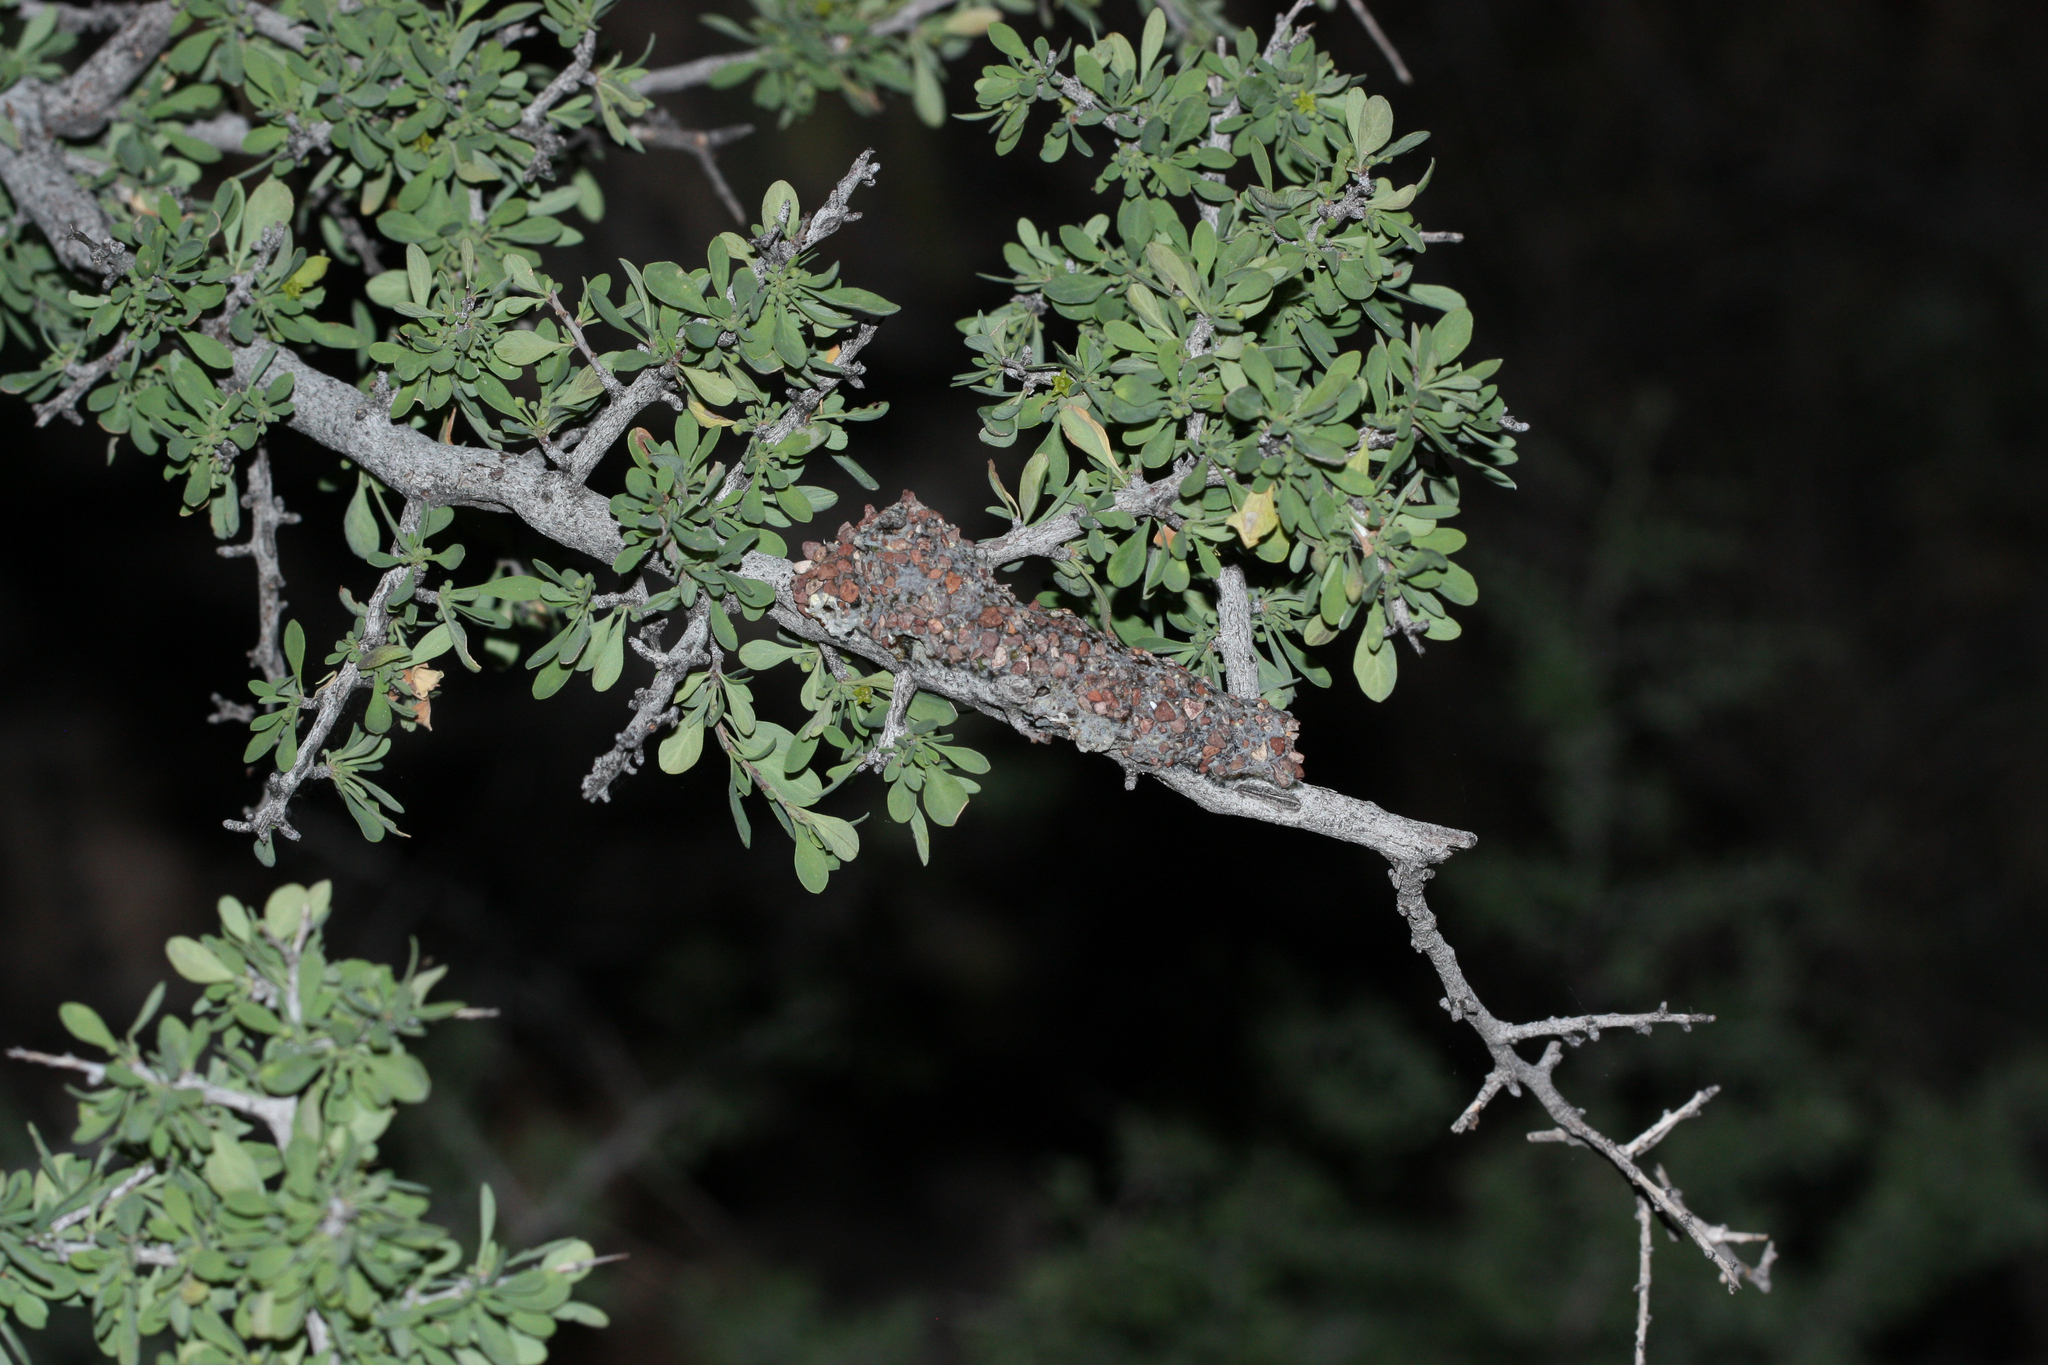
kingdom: Animalia
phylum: Arthropoda
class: Insecta
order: Hymenoptera
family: Megachilidae
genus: Dianthidium
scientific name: Dianthidium
